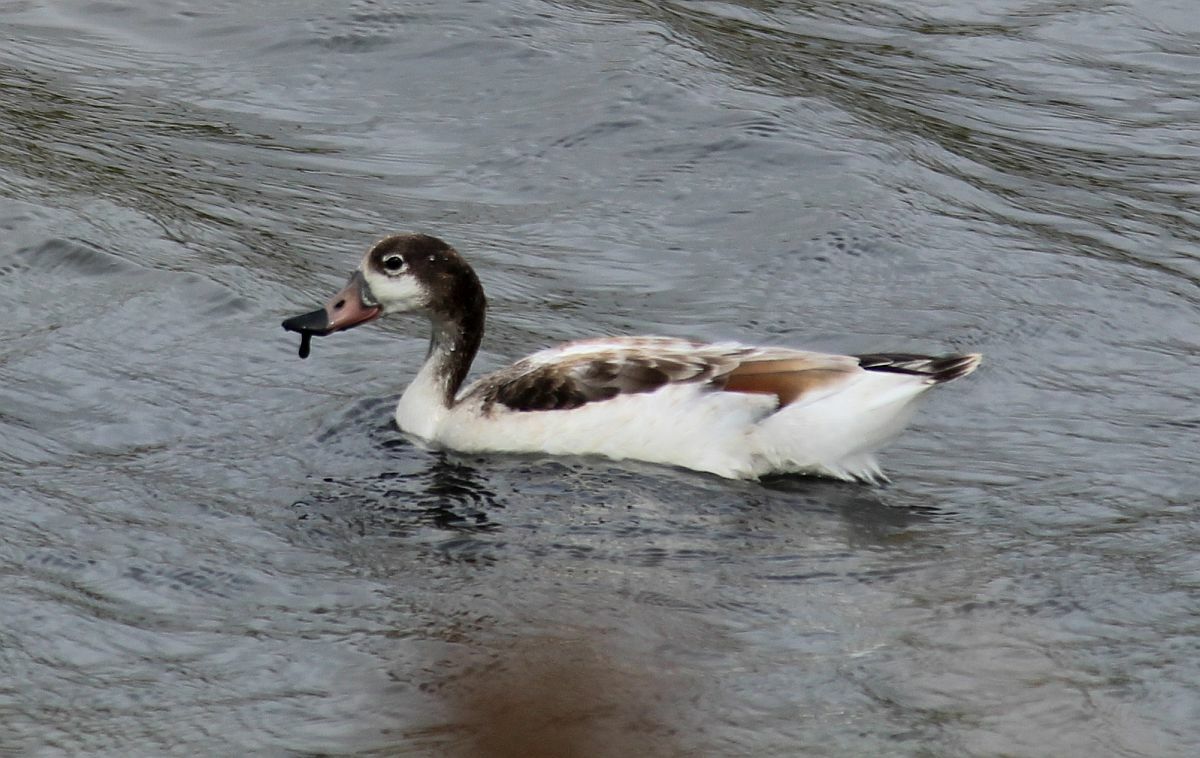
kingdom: Animalia
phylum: Chordata
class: Aves
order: Anseriformes
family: Anatidae
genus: Tadorna
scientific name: Tadorna tadorna
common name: Common shelduck
